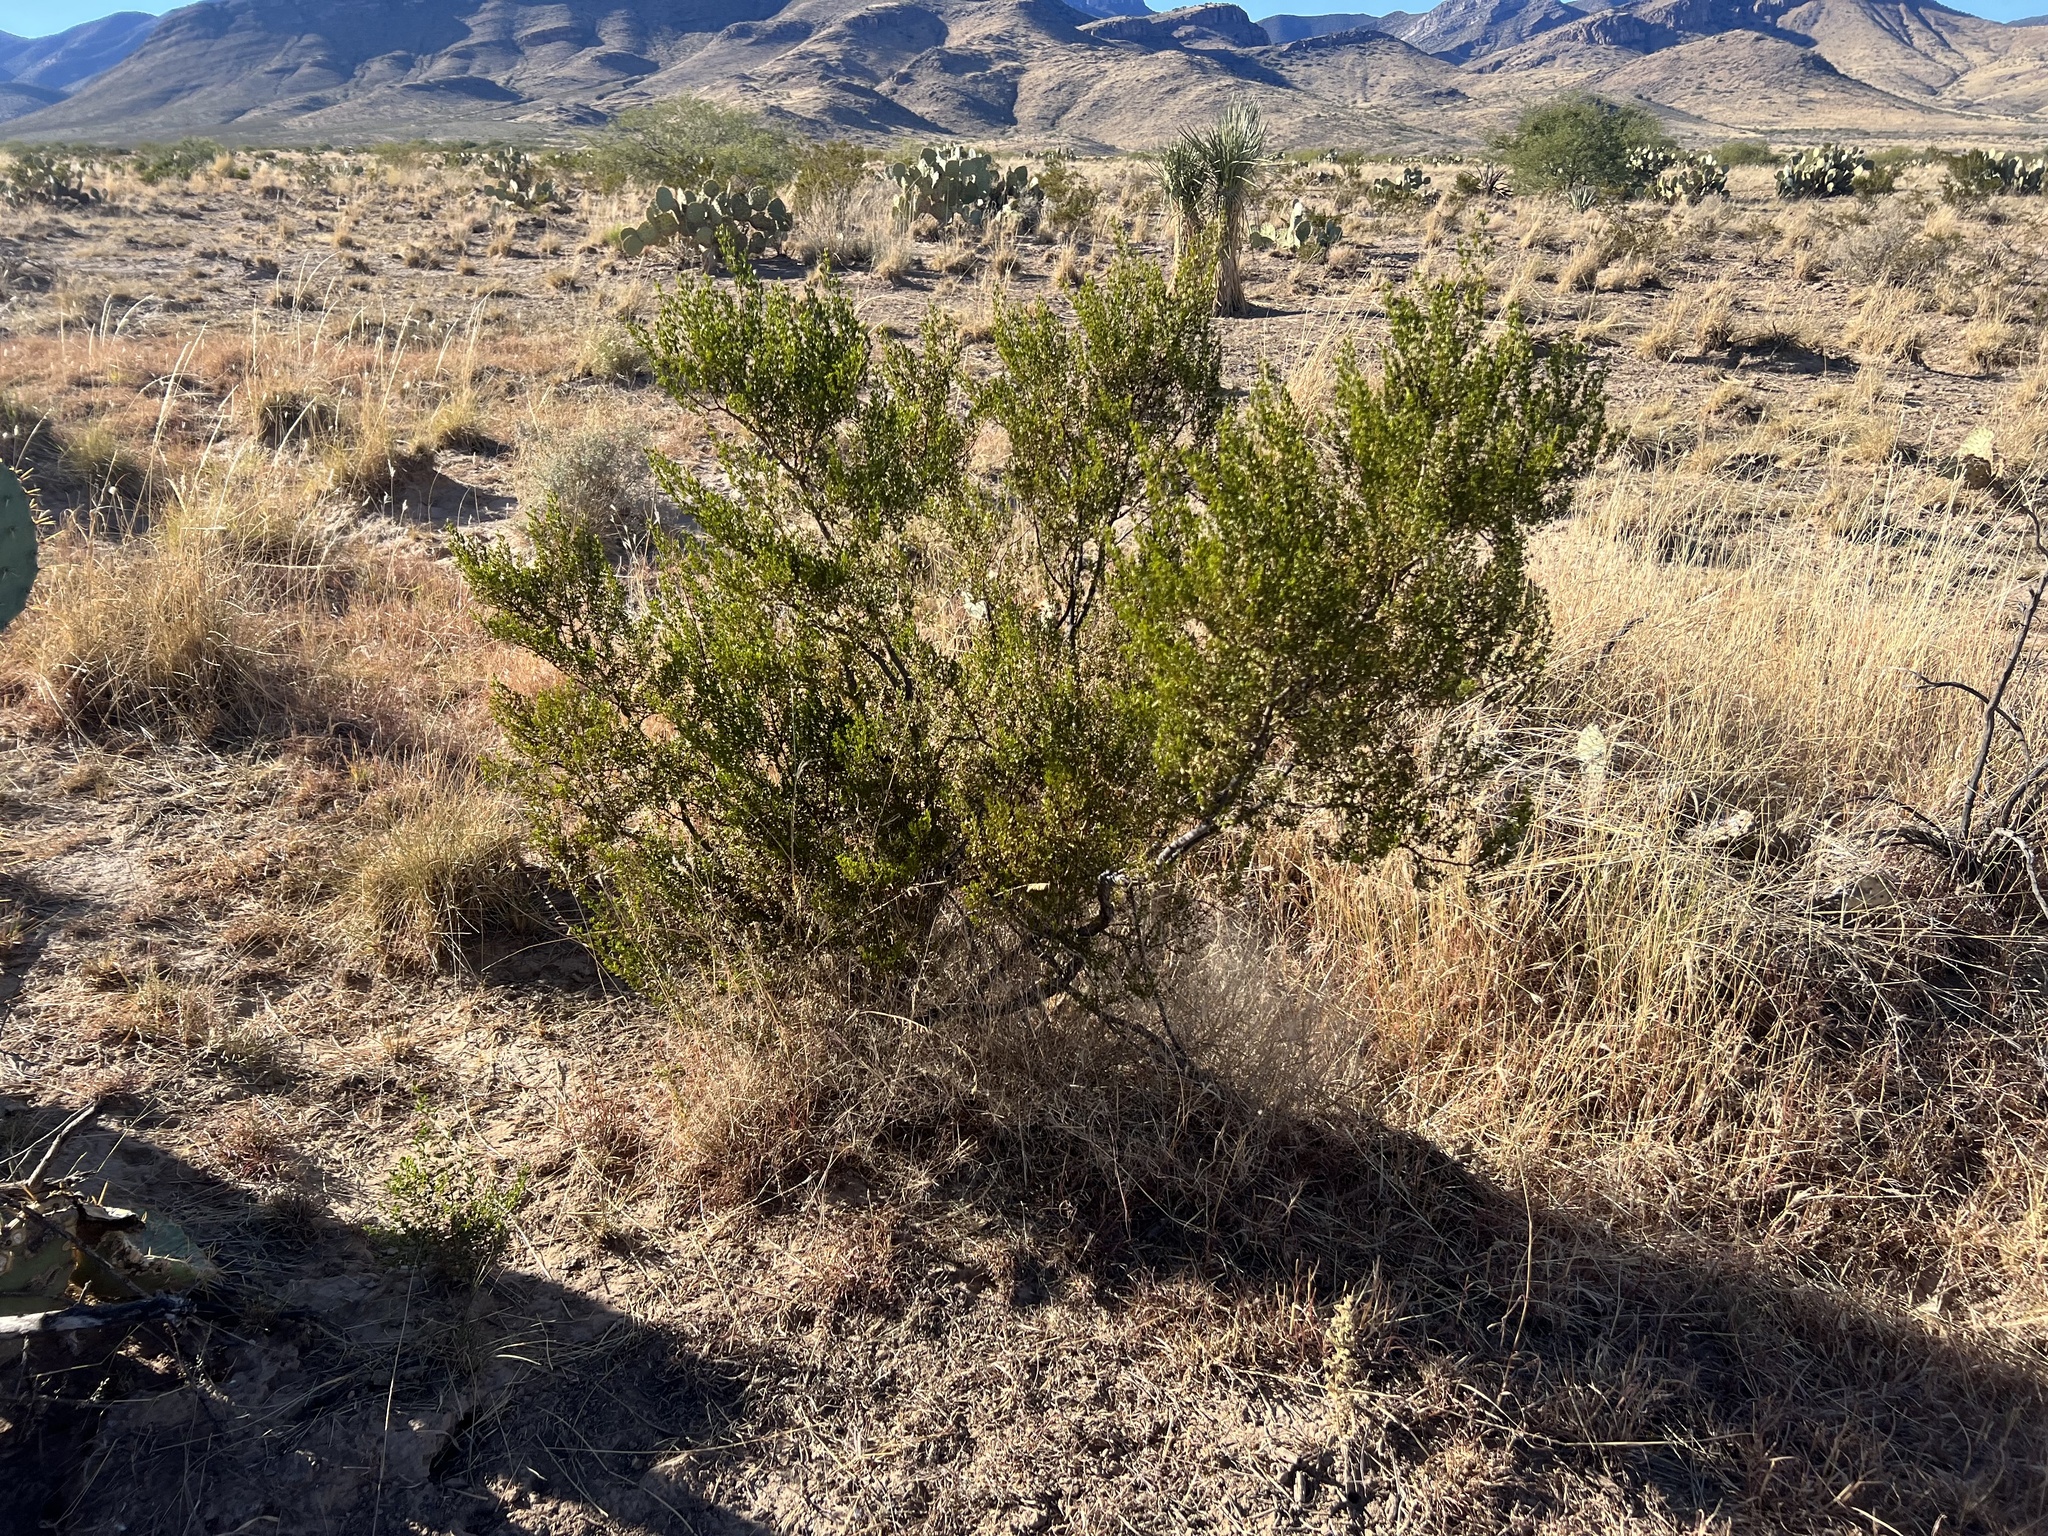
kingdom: Plantae
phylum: Tracheophyta
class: Magnoliopsida
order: Zygophyllales
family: Zygophyllaceae
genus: Larrea
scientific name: Larrea tridentata
